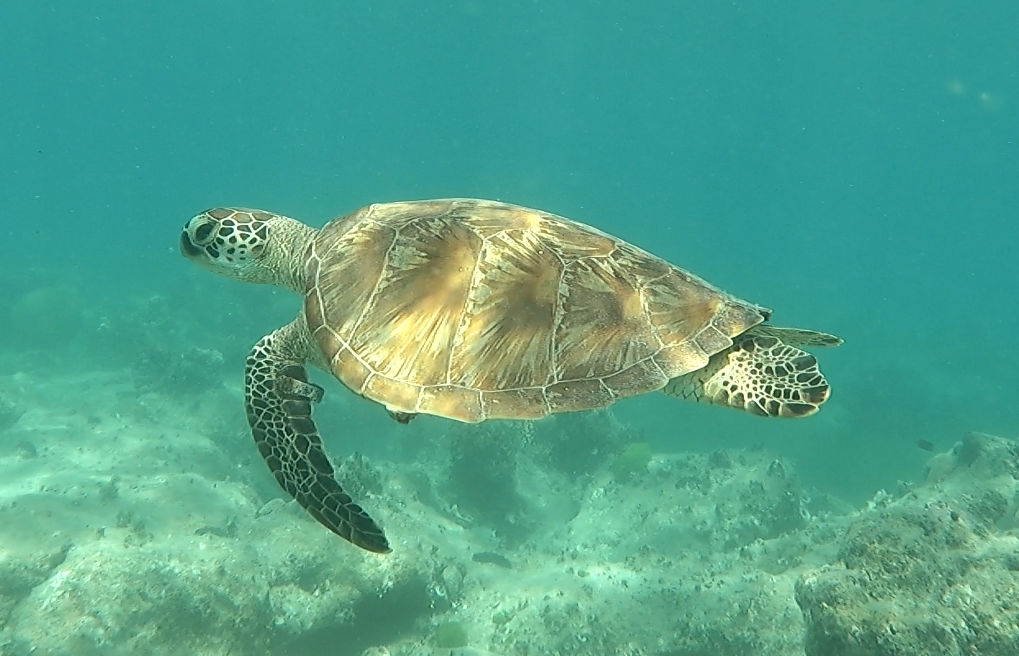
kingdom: Animalia
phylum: Chordata
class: Testudines
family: Cheloniidae
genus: Chelonia
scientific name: Chelonia mydas
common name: Green turtle
